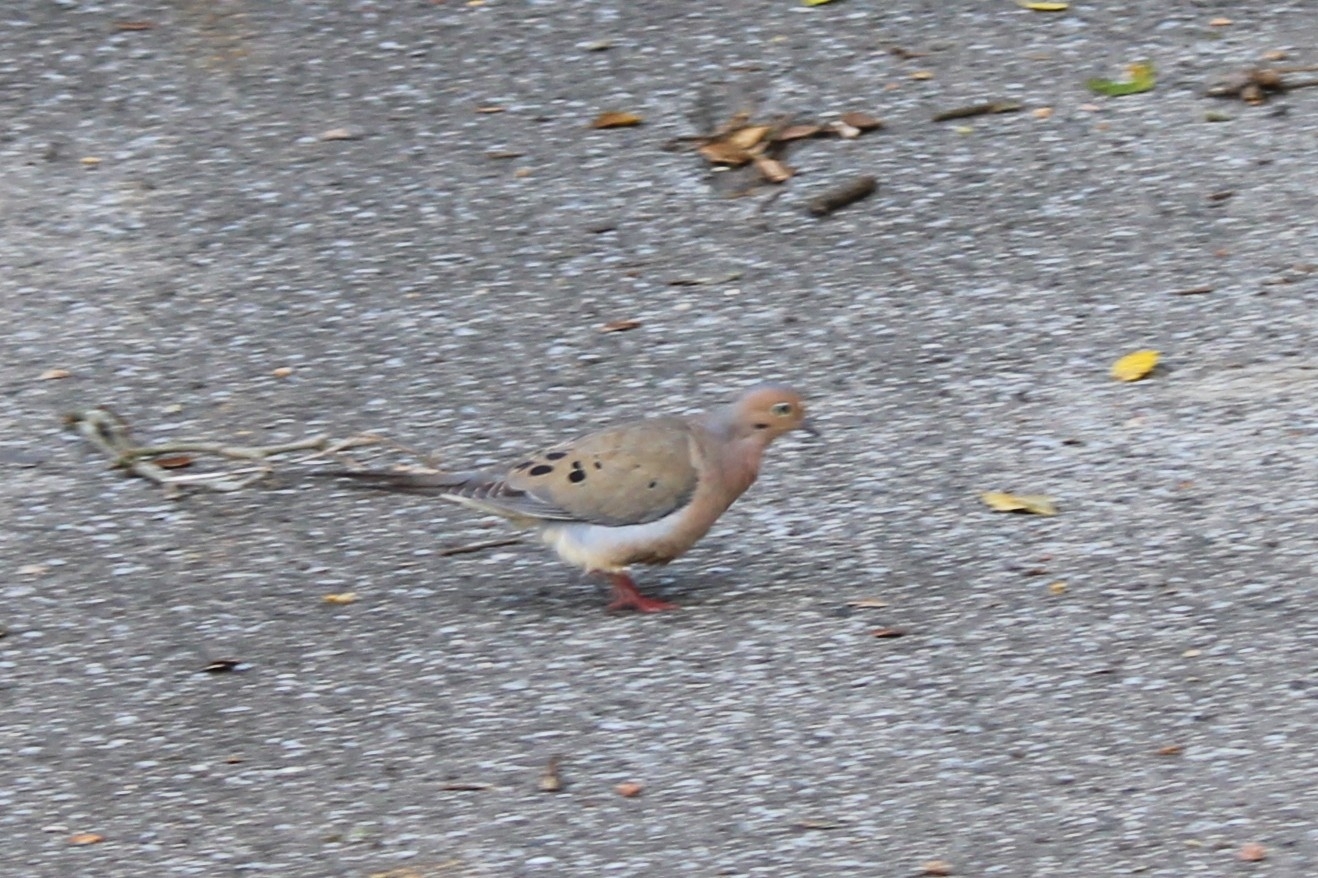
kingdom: Animalia
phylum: Chordata
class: Aves
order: Columbiformes
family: Columbidae
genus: Zenaida
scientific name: Zenaida macroura
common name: Mourning dove
